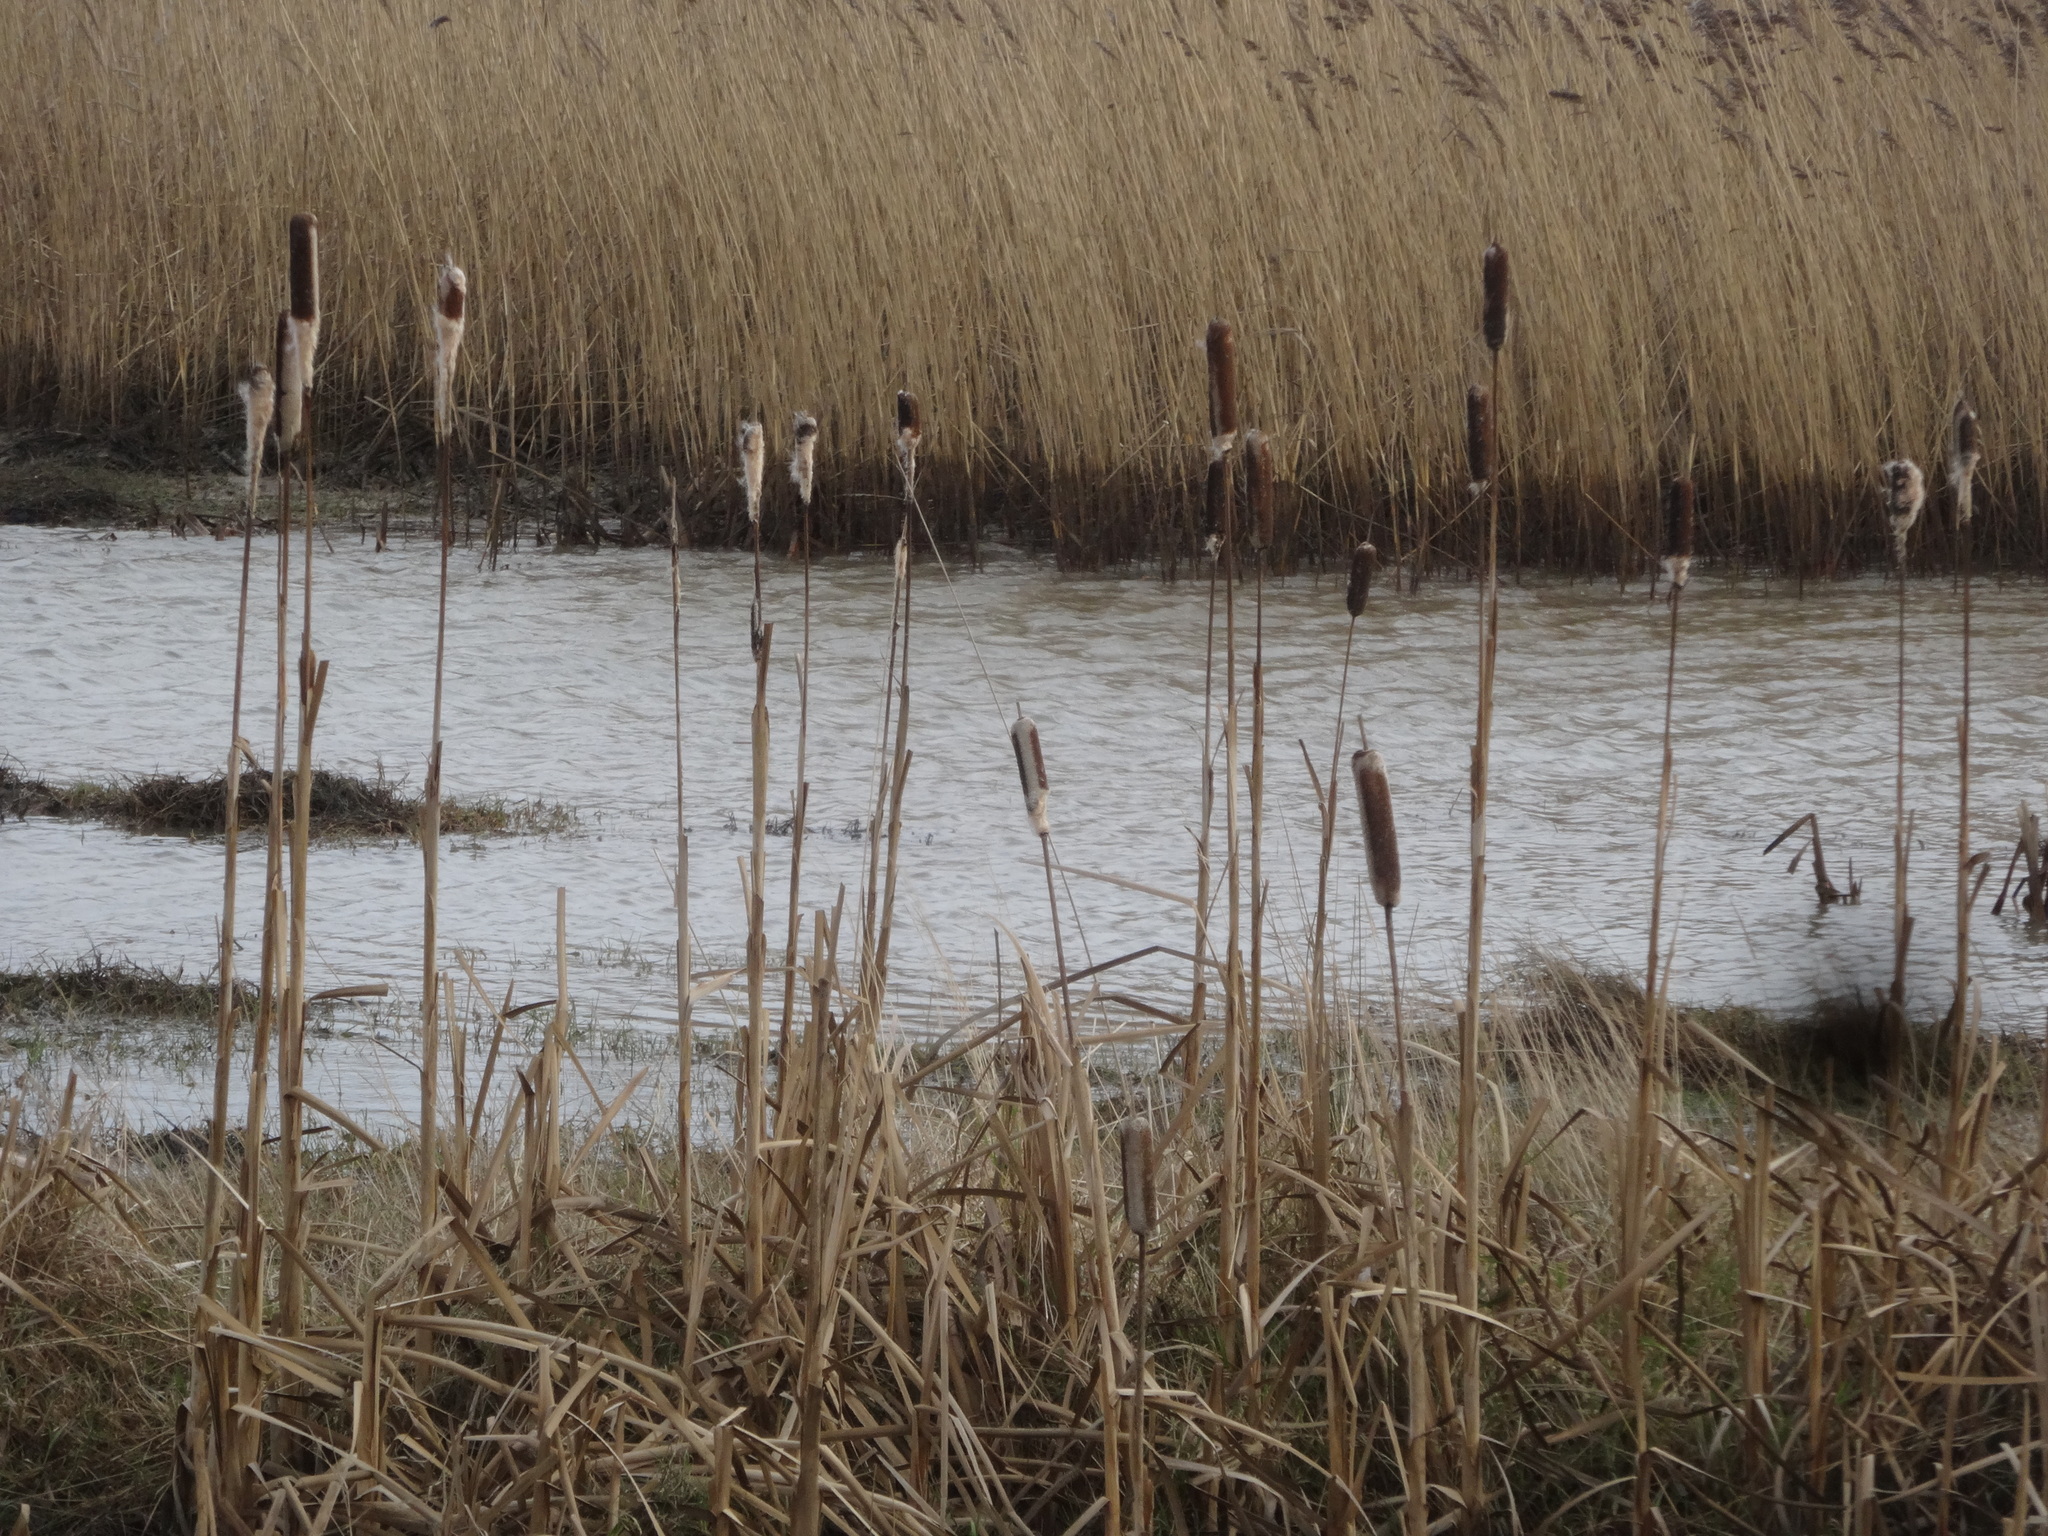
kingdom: Plantae
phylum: Tracheophyta
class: Liliopsida
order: Poales
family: Typhaceae
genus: Typha
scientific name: Typha latifolia
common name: Broadleaf cattail
